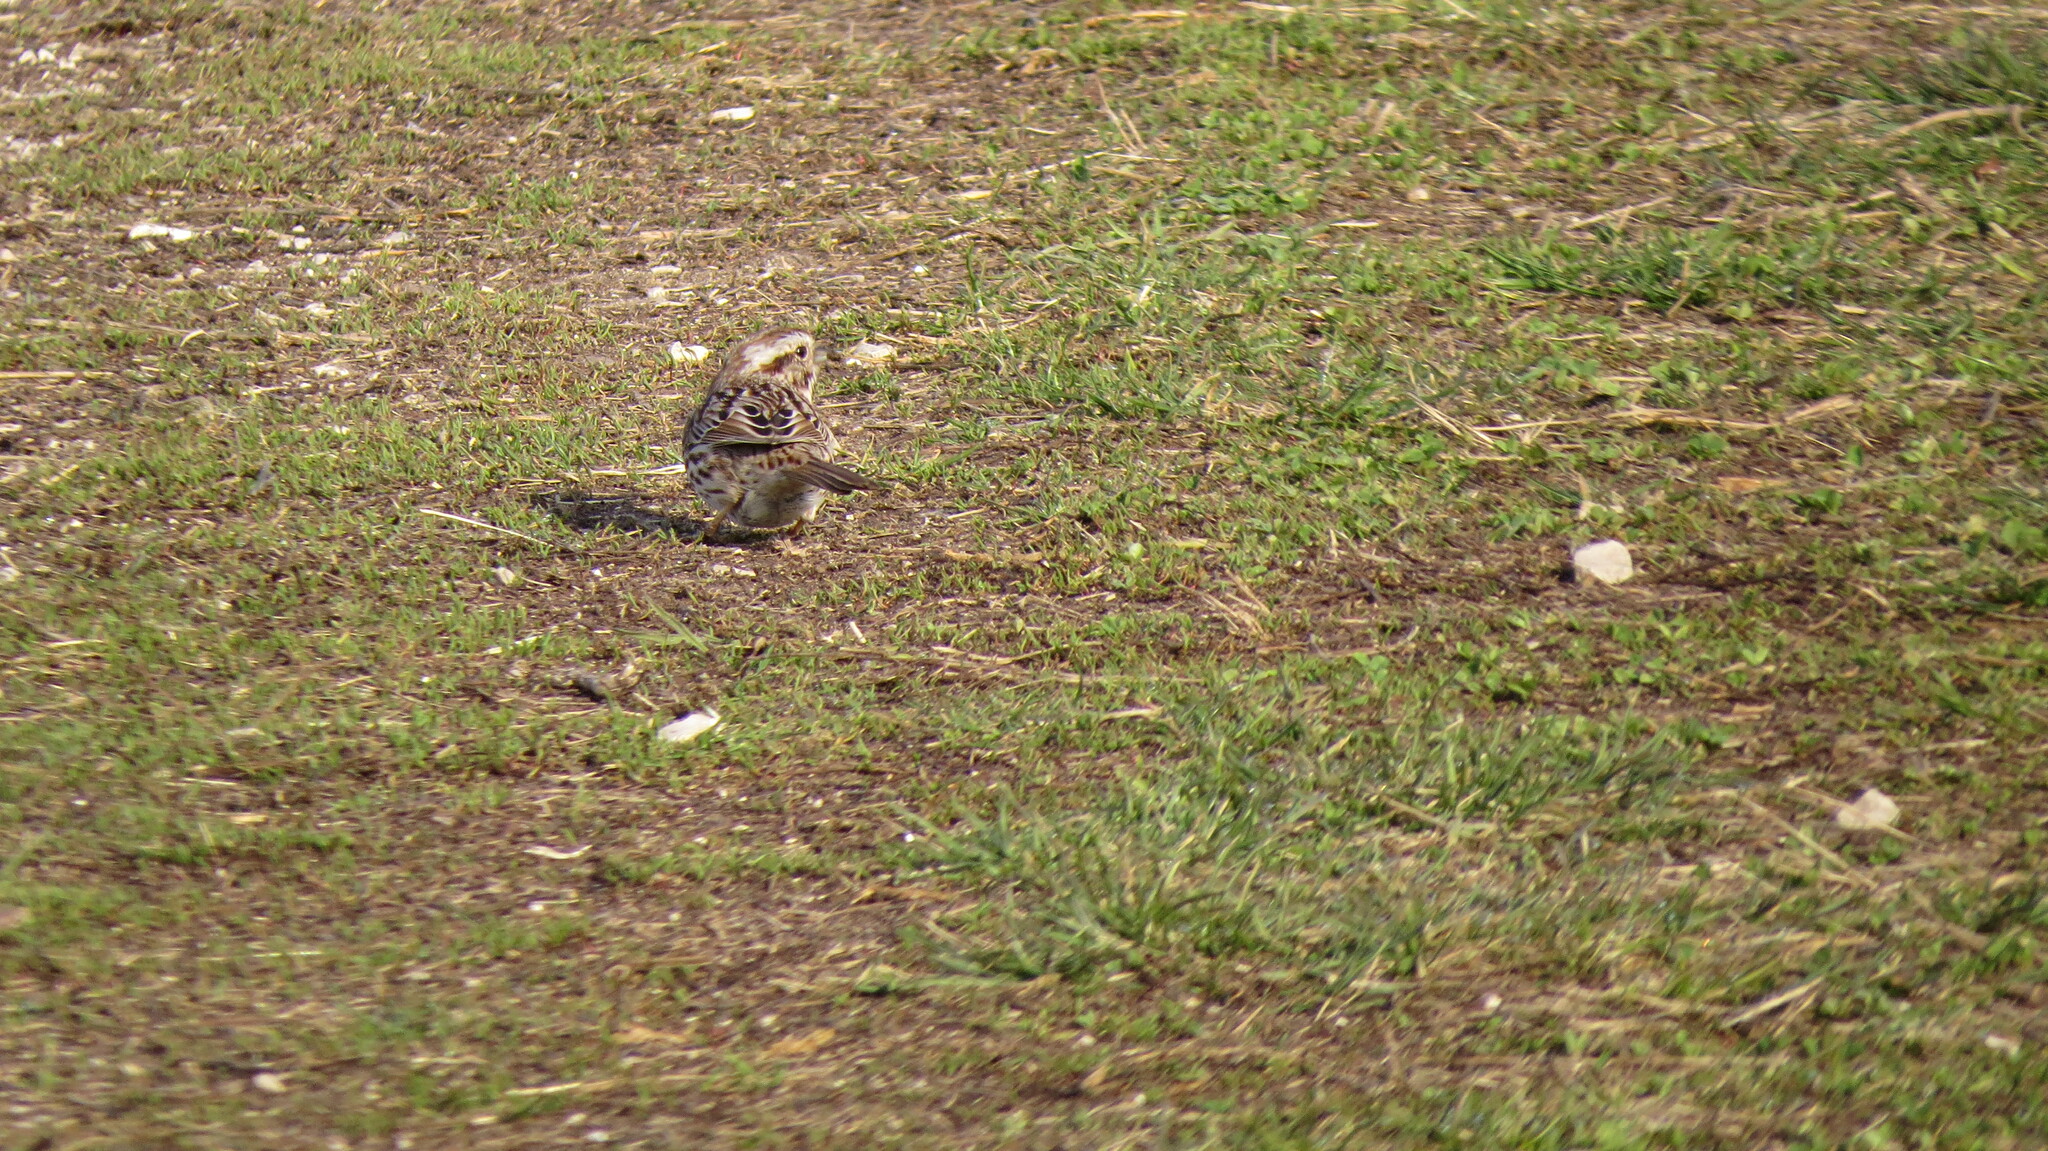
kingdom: Animalia
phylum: Chordata
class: Aves
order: Passeriformes
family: Passerellidae
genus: Melospiza
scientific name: Melospiza melodia
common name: Song sparrow
